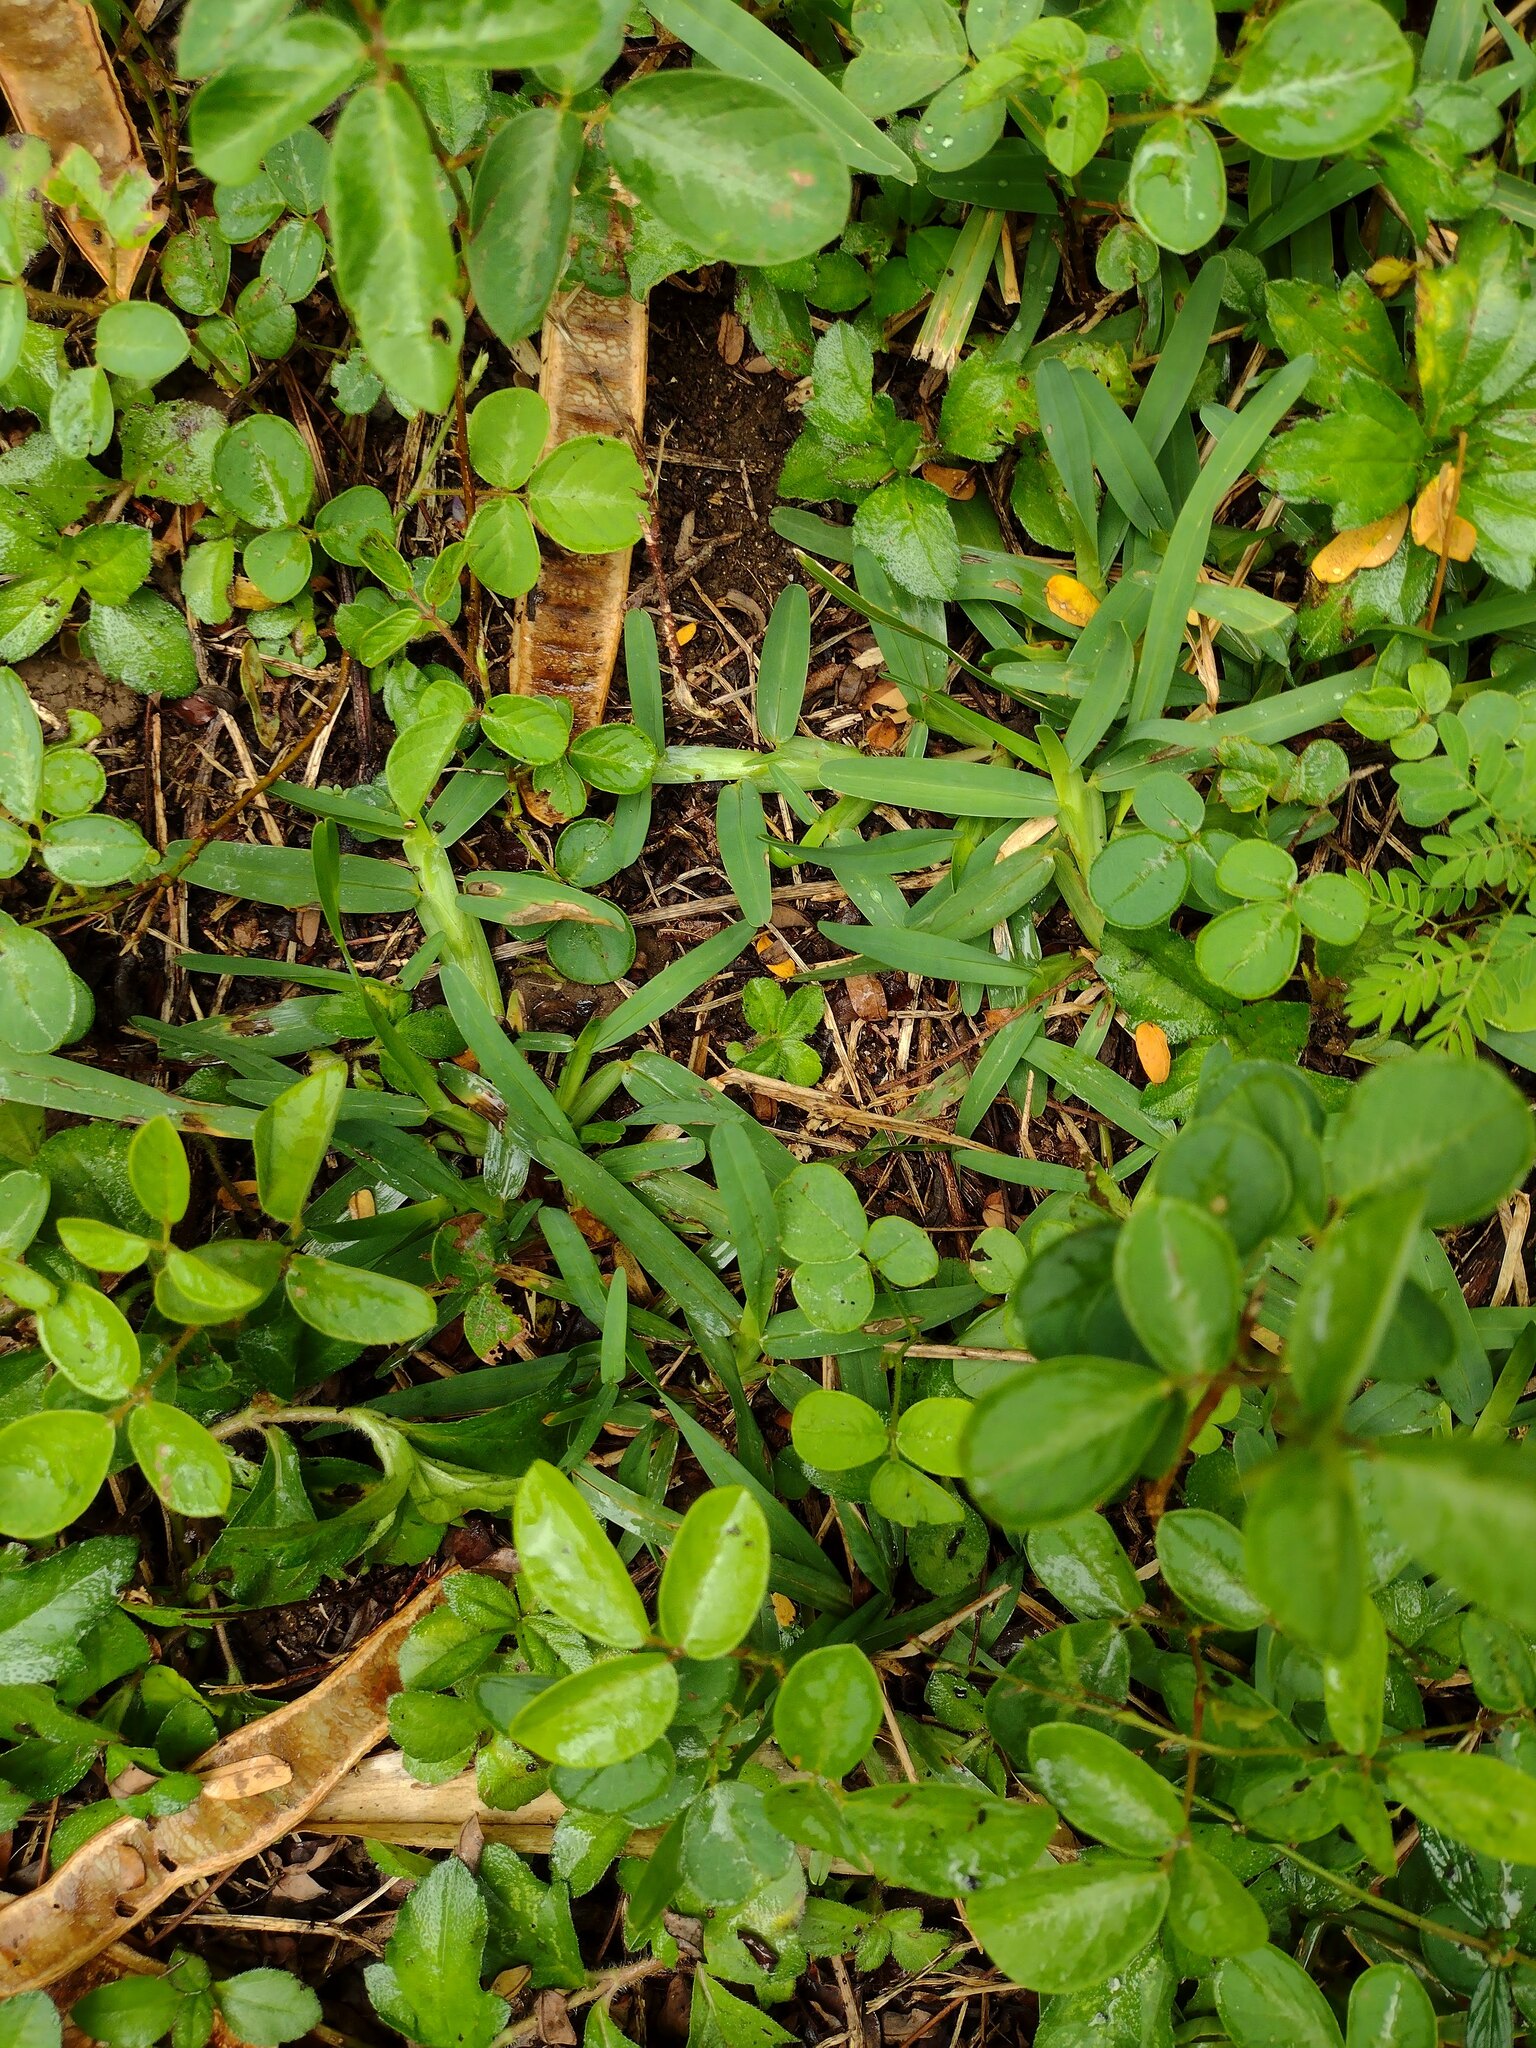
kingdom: Plantae
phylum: Tracheophyta
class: Liliopsida
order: Poales
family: Poaceae
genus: Stenotaphrum
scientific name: Stenotaphrum secundatum
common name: St. augustine grass
